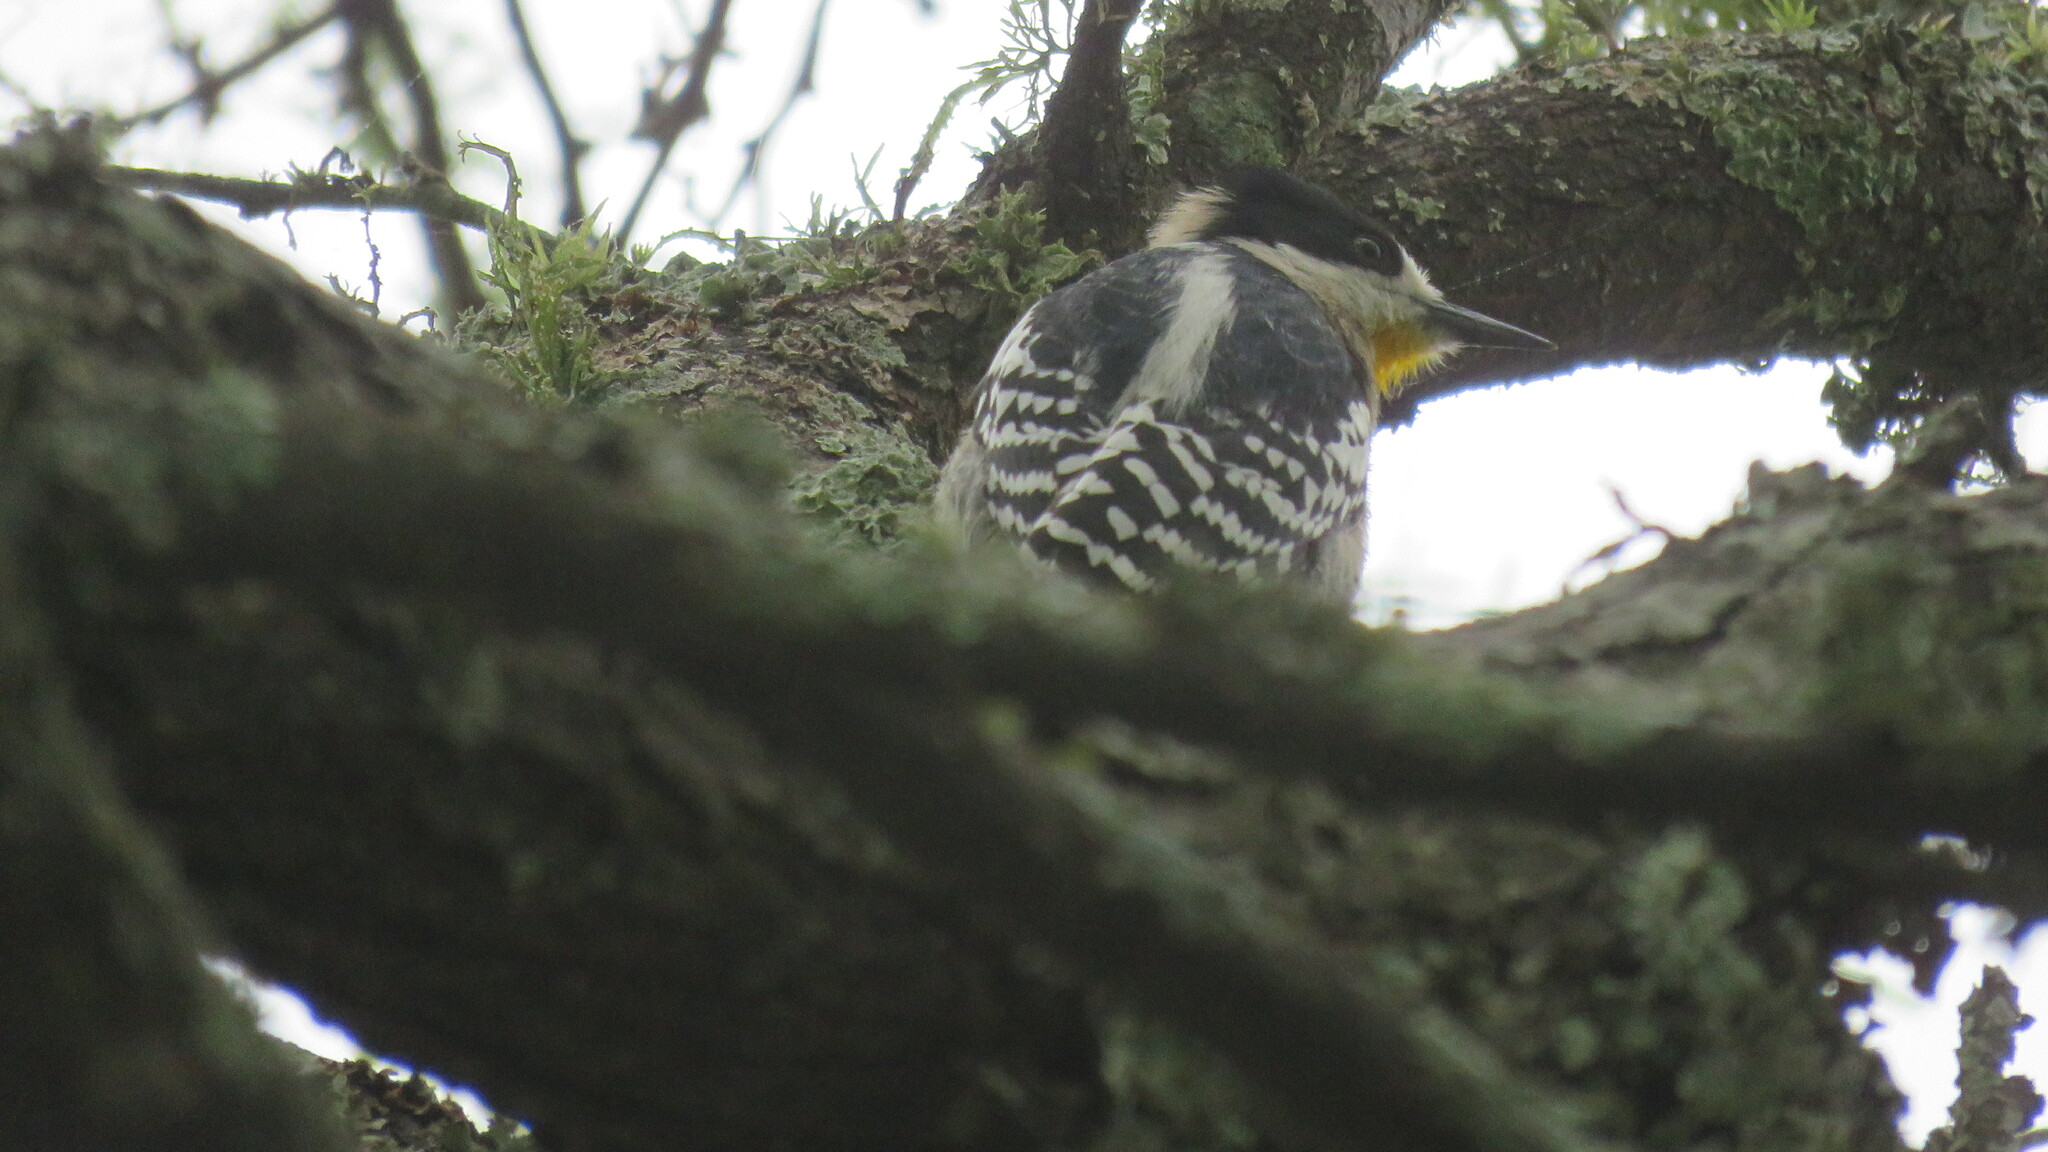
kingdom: Animalia
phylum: Chordata
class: Aves
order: Piciformes
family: Picidae
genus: Melanerpes
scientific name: Melanerpes cactorum
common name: White-fronted woodpecker
